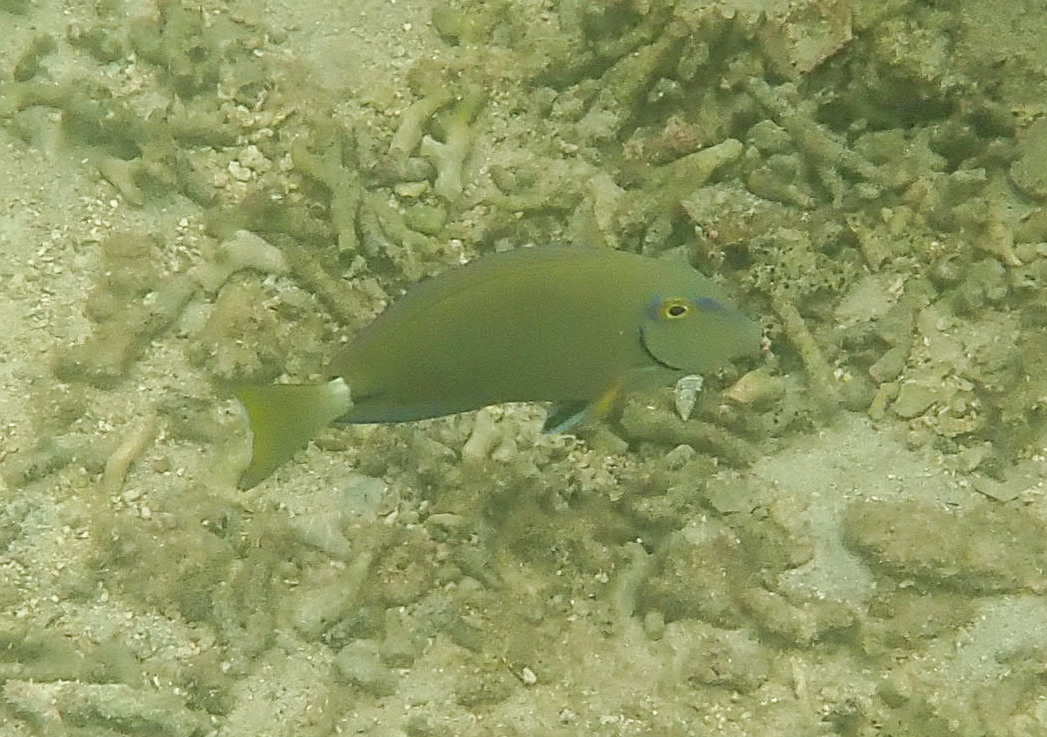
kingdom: Animalia
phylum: Chordata
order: Perciformes
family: Acanthuridae
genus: Acanthurus
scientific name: Acanthurus bahianus
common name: Ocean surgeon
